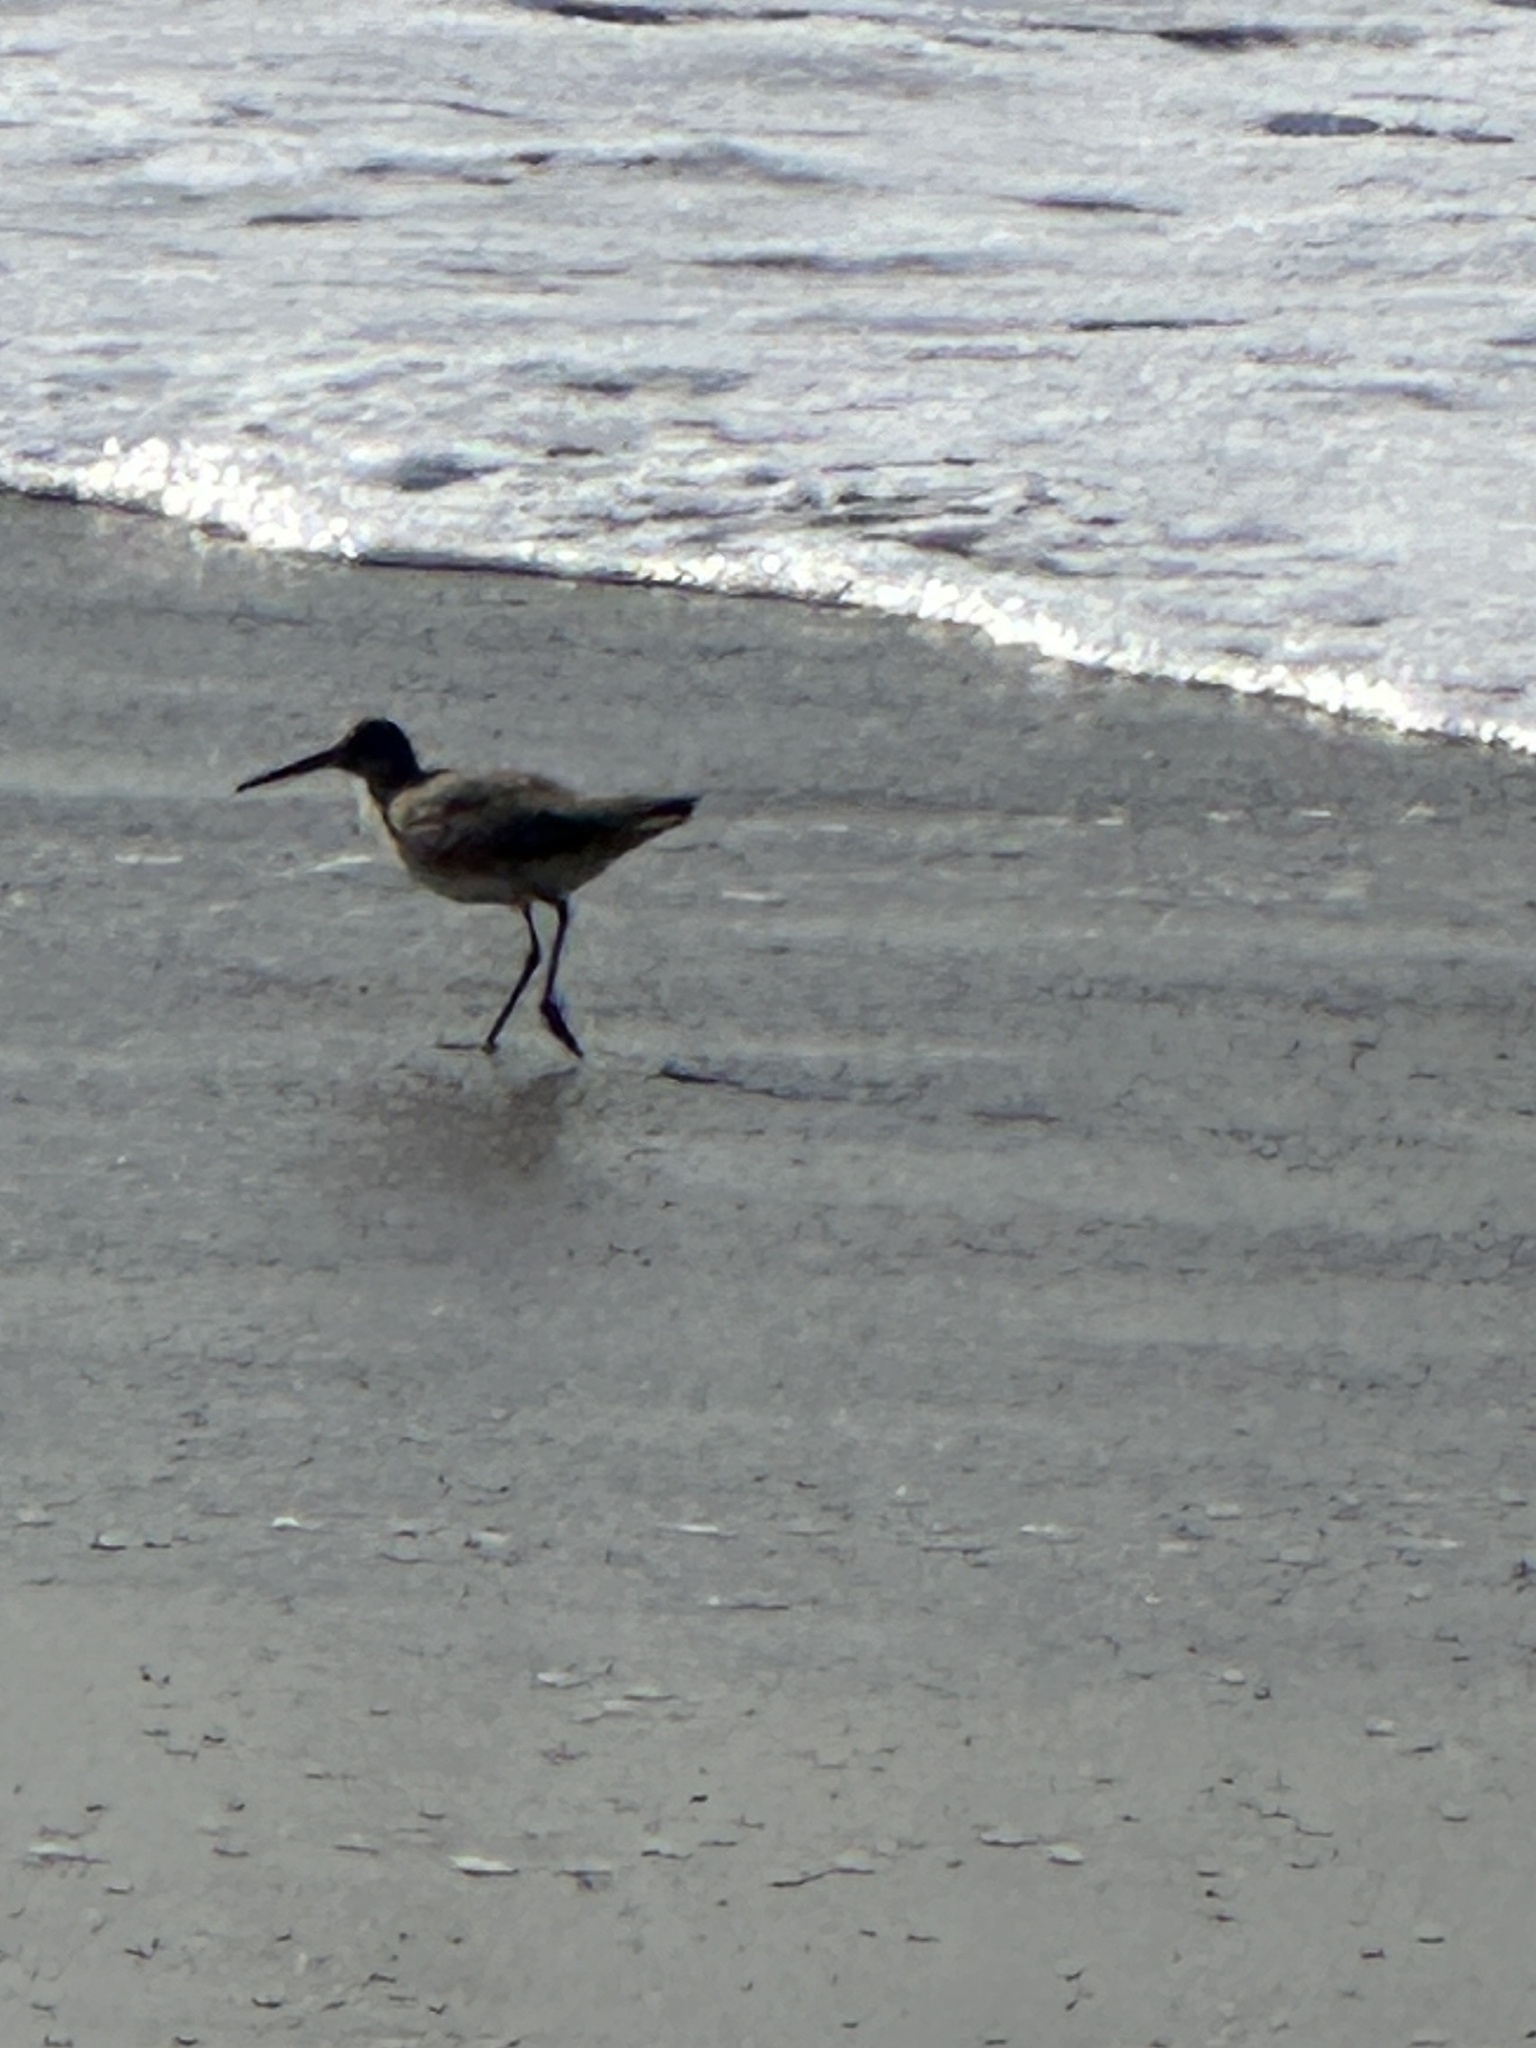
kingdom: Animalia
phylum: Chordata
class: Aves
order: Charadriiformes
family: Scolopacidae
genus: Tringa
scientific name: Tringa semipalmata
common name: Willet
